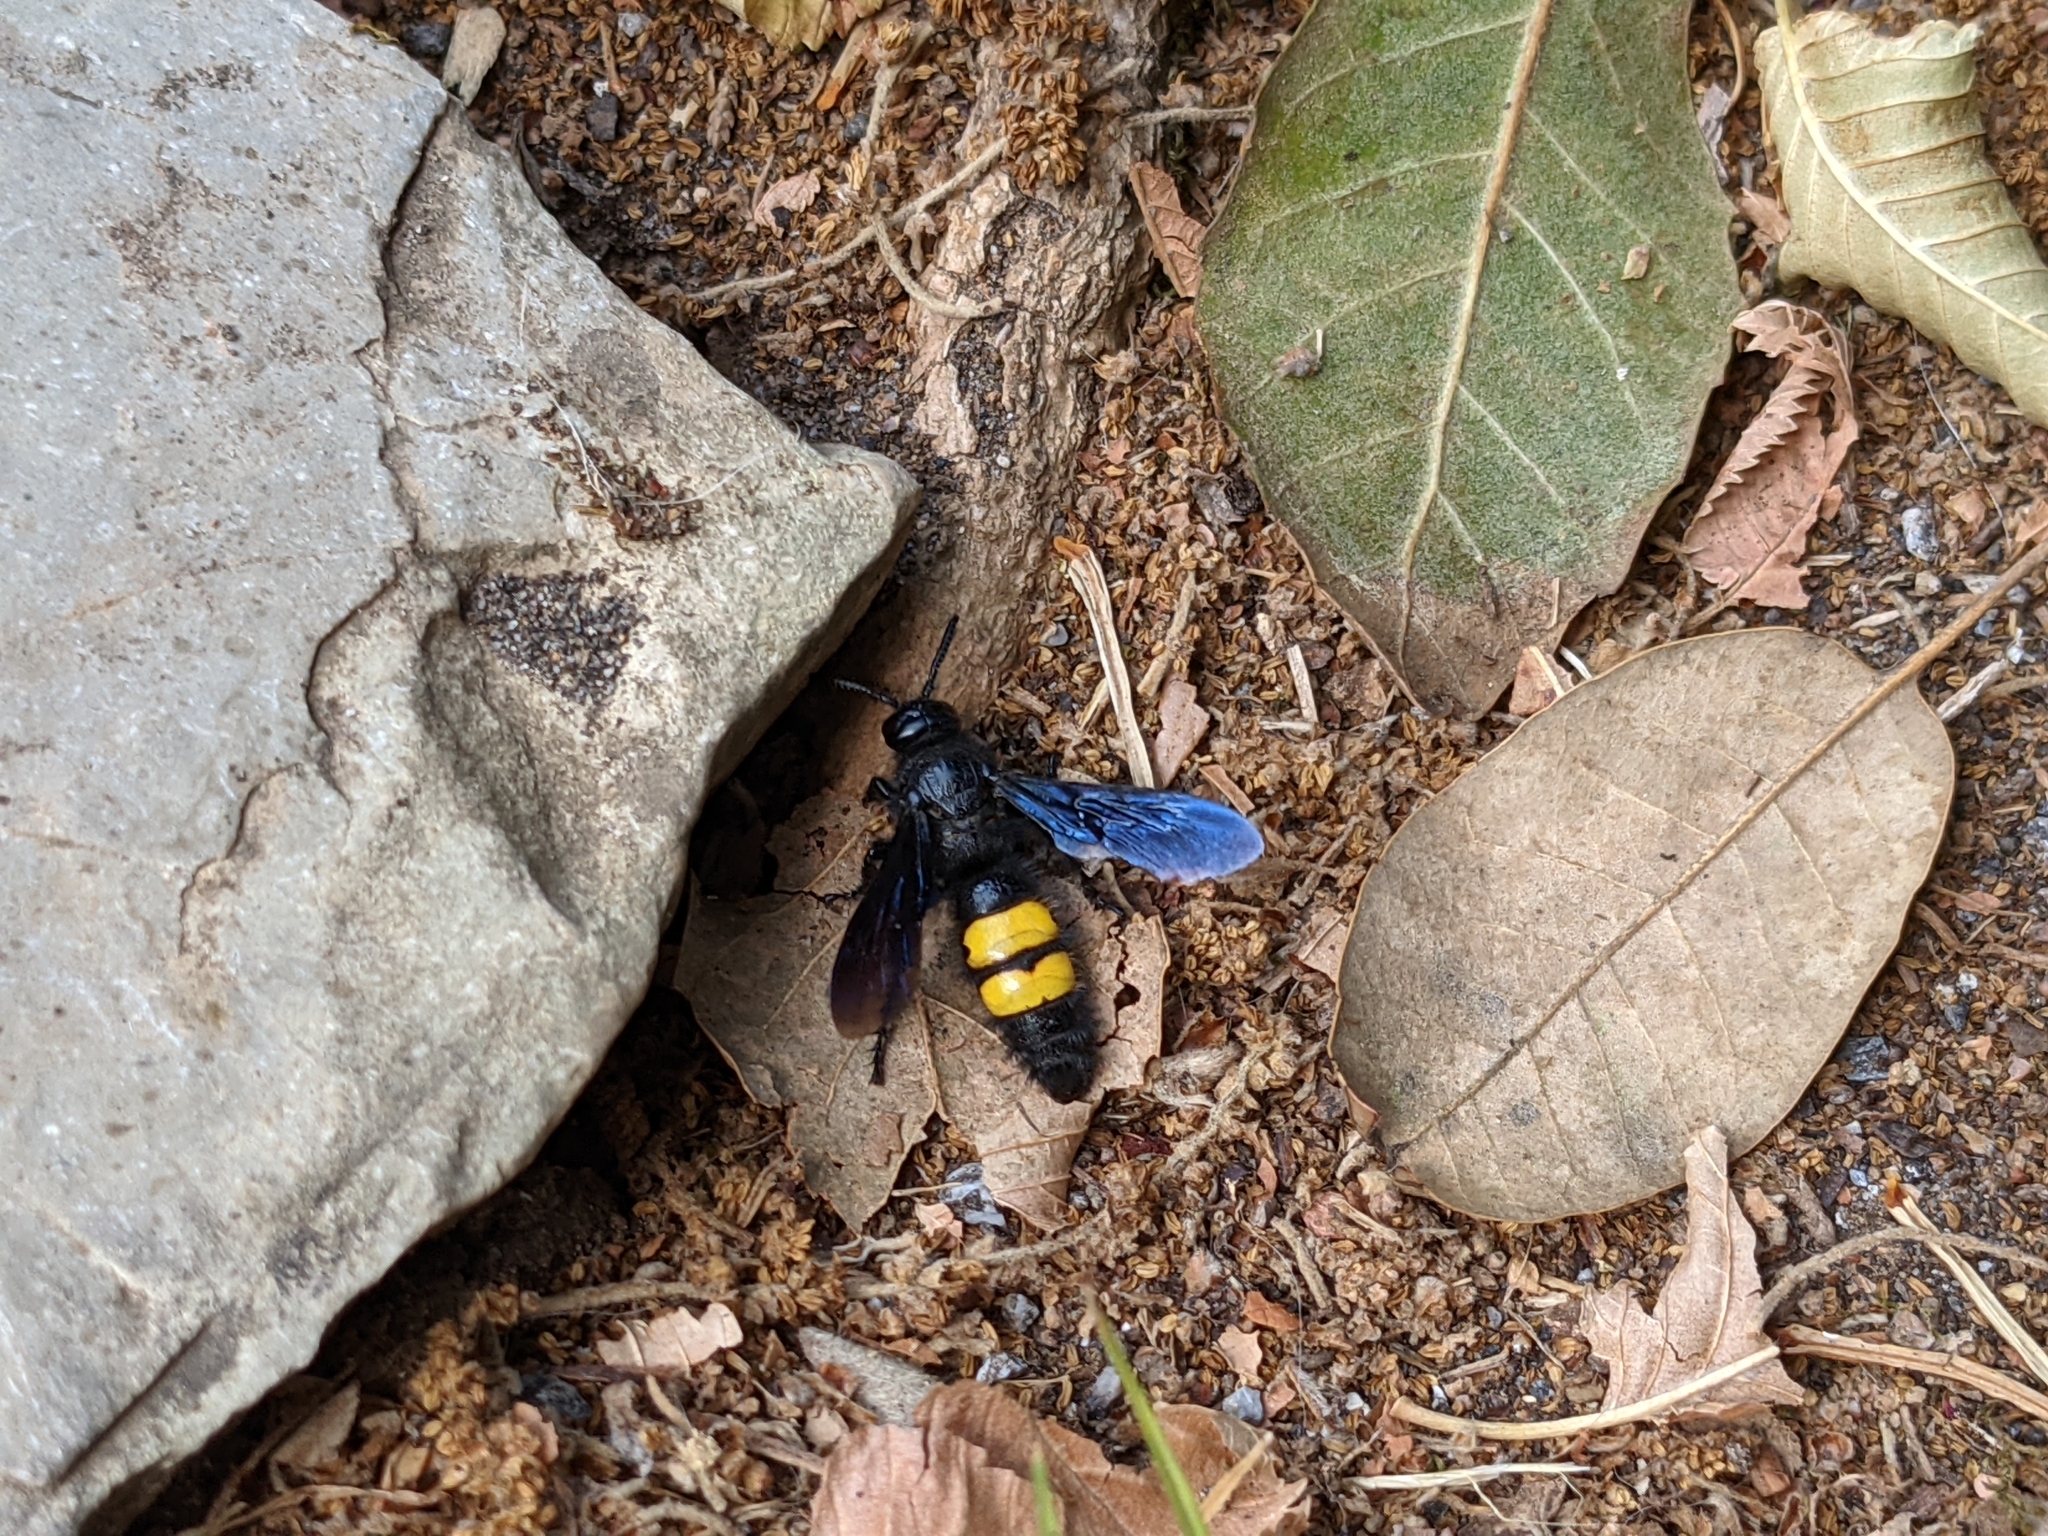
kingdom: Animalia
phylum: Arthropoda
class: Insecta
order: Hymenoptera
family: Scoliidae
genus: Scolia
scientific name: Scolia hirta
